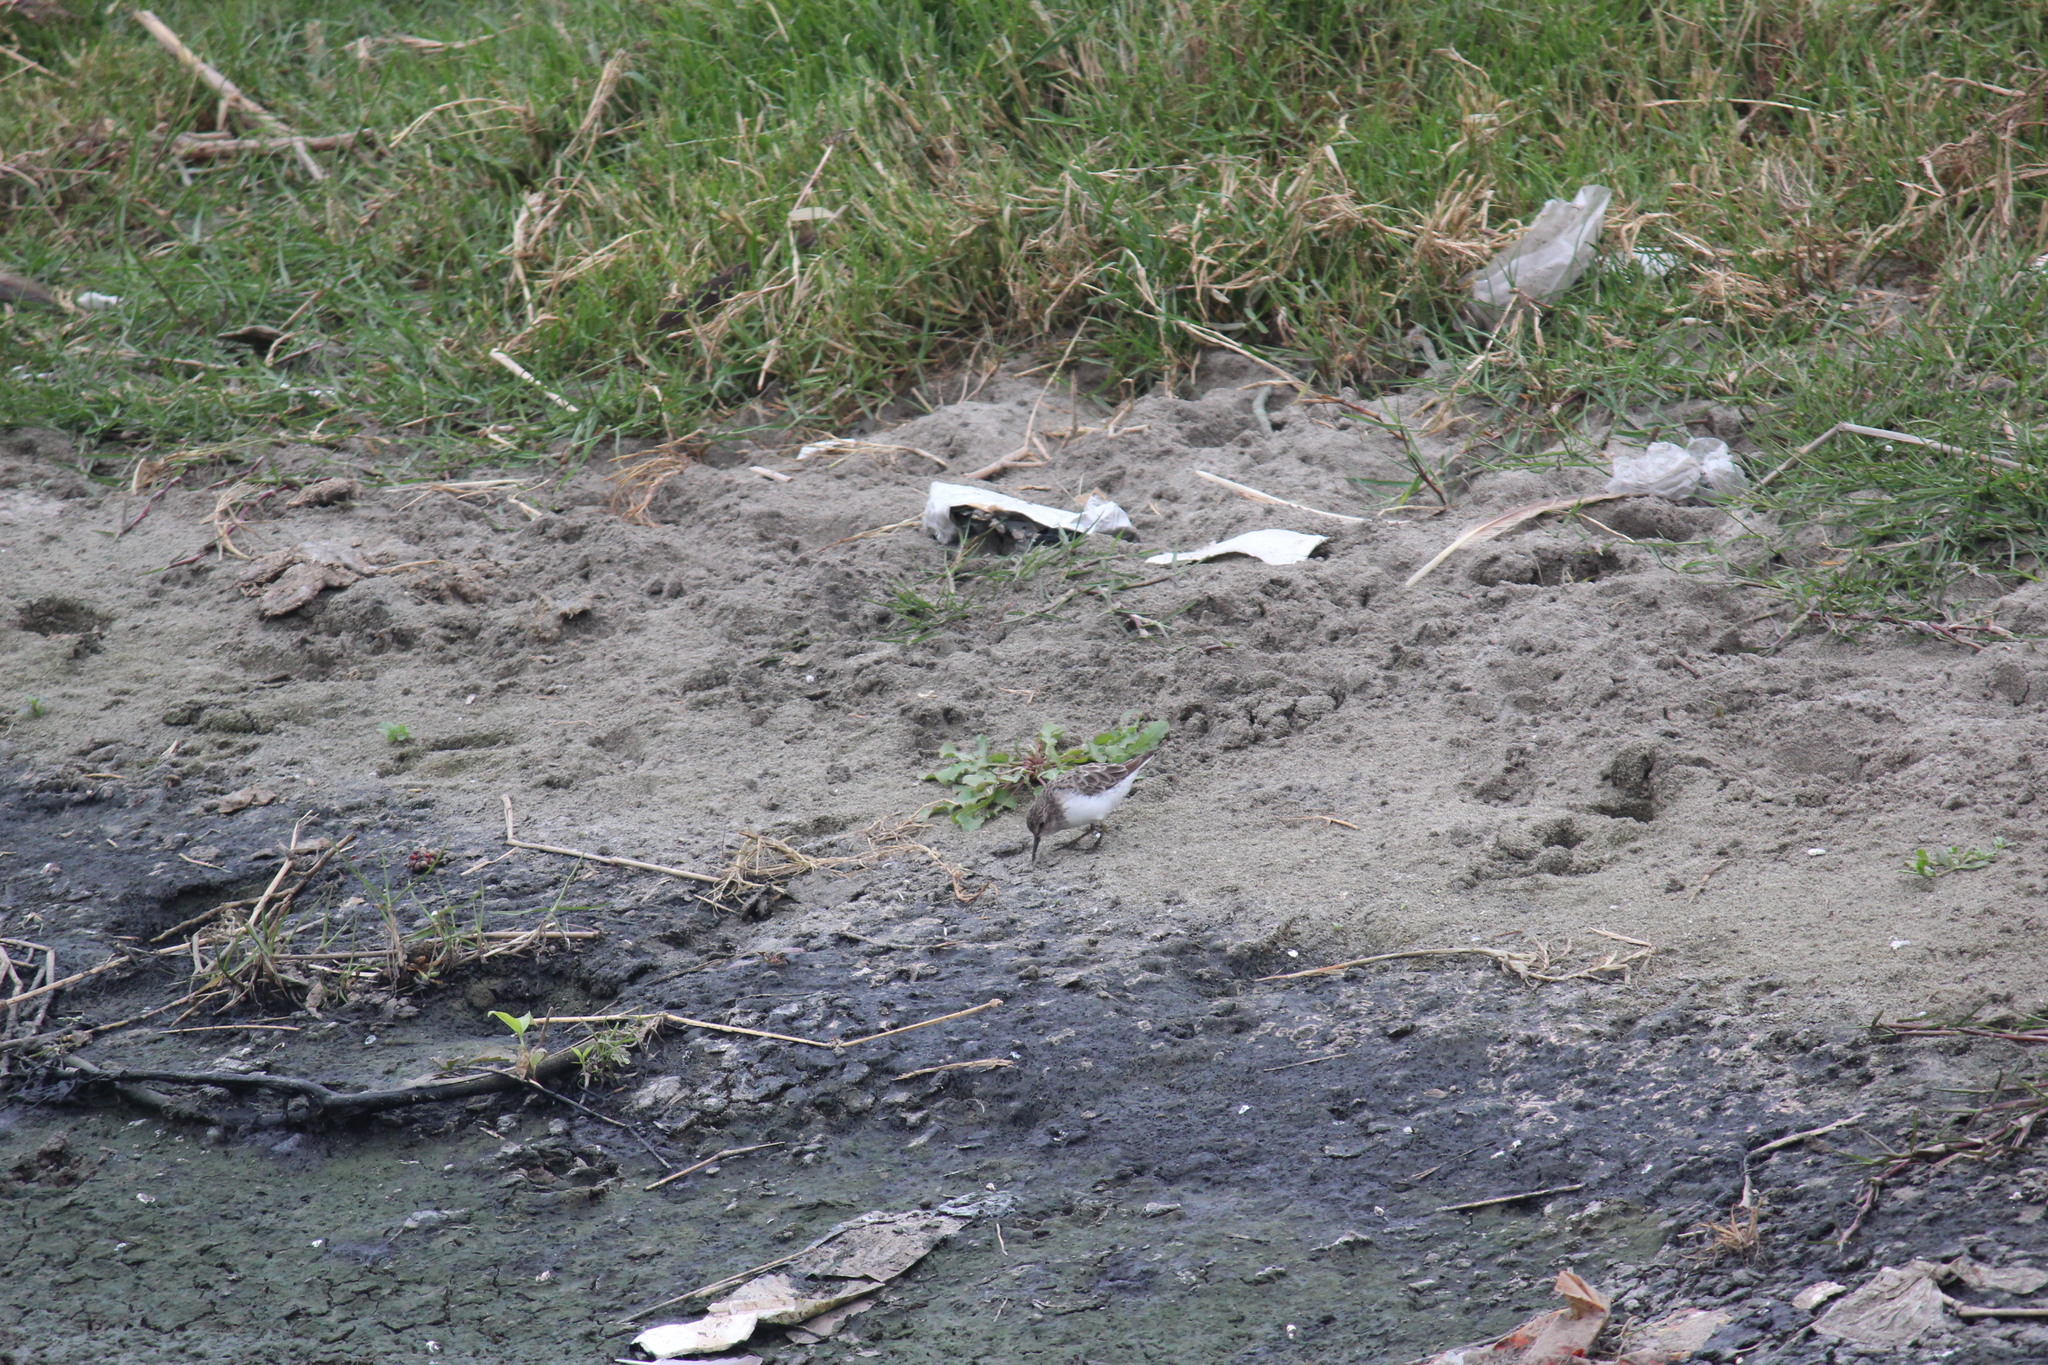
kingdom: Animalia
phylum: Chordata
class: Aves
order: Charadriiformes
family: Scolopacidae
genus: Calidris
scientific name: Calidris minutilla
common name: Least sandpiper
